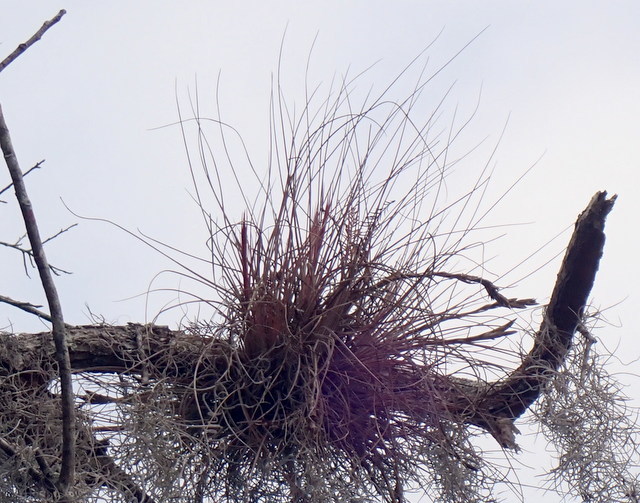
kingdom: Plantae
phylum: Tracheophyta
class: Liliopsida
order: Poales
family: Bromeliaceae
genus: Tillandsia
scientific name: Tillandsia bartramii
